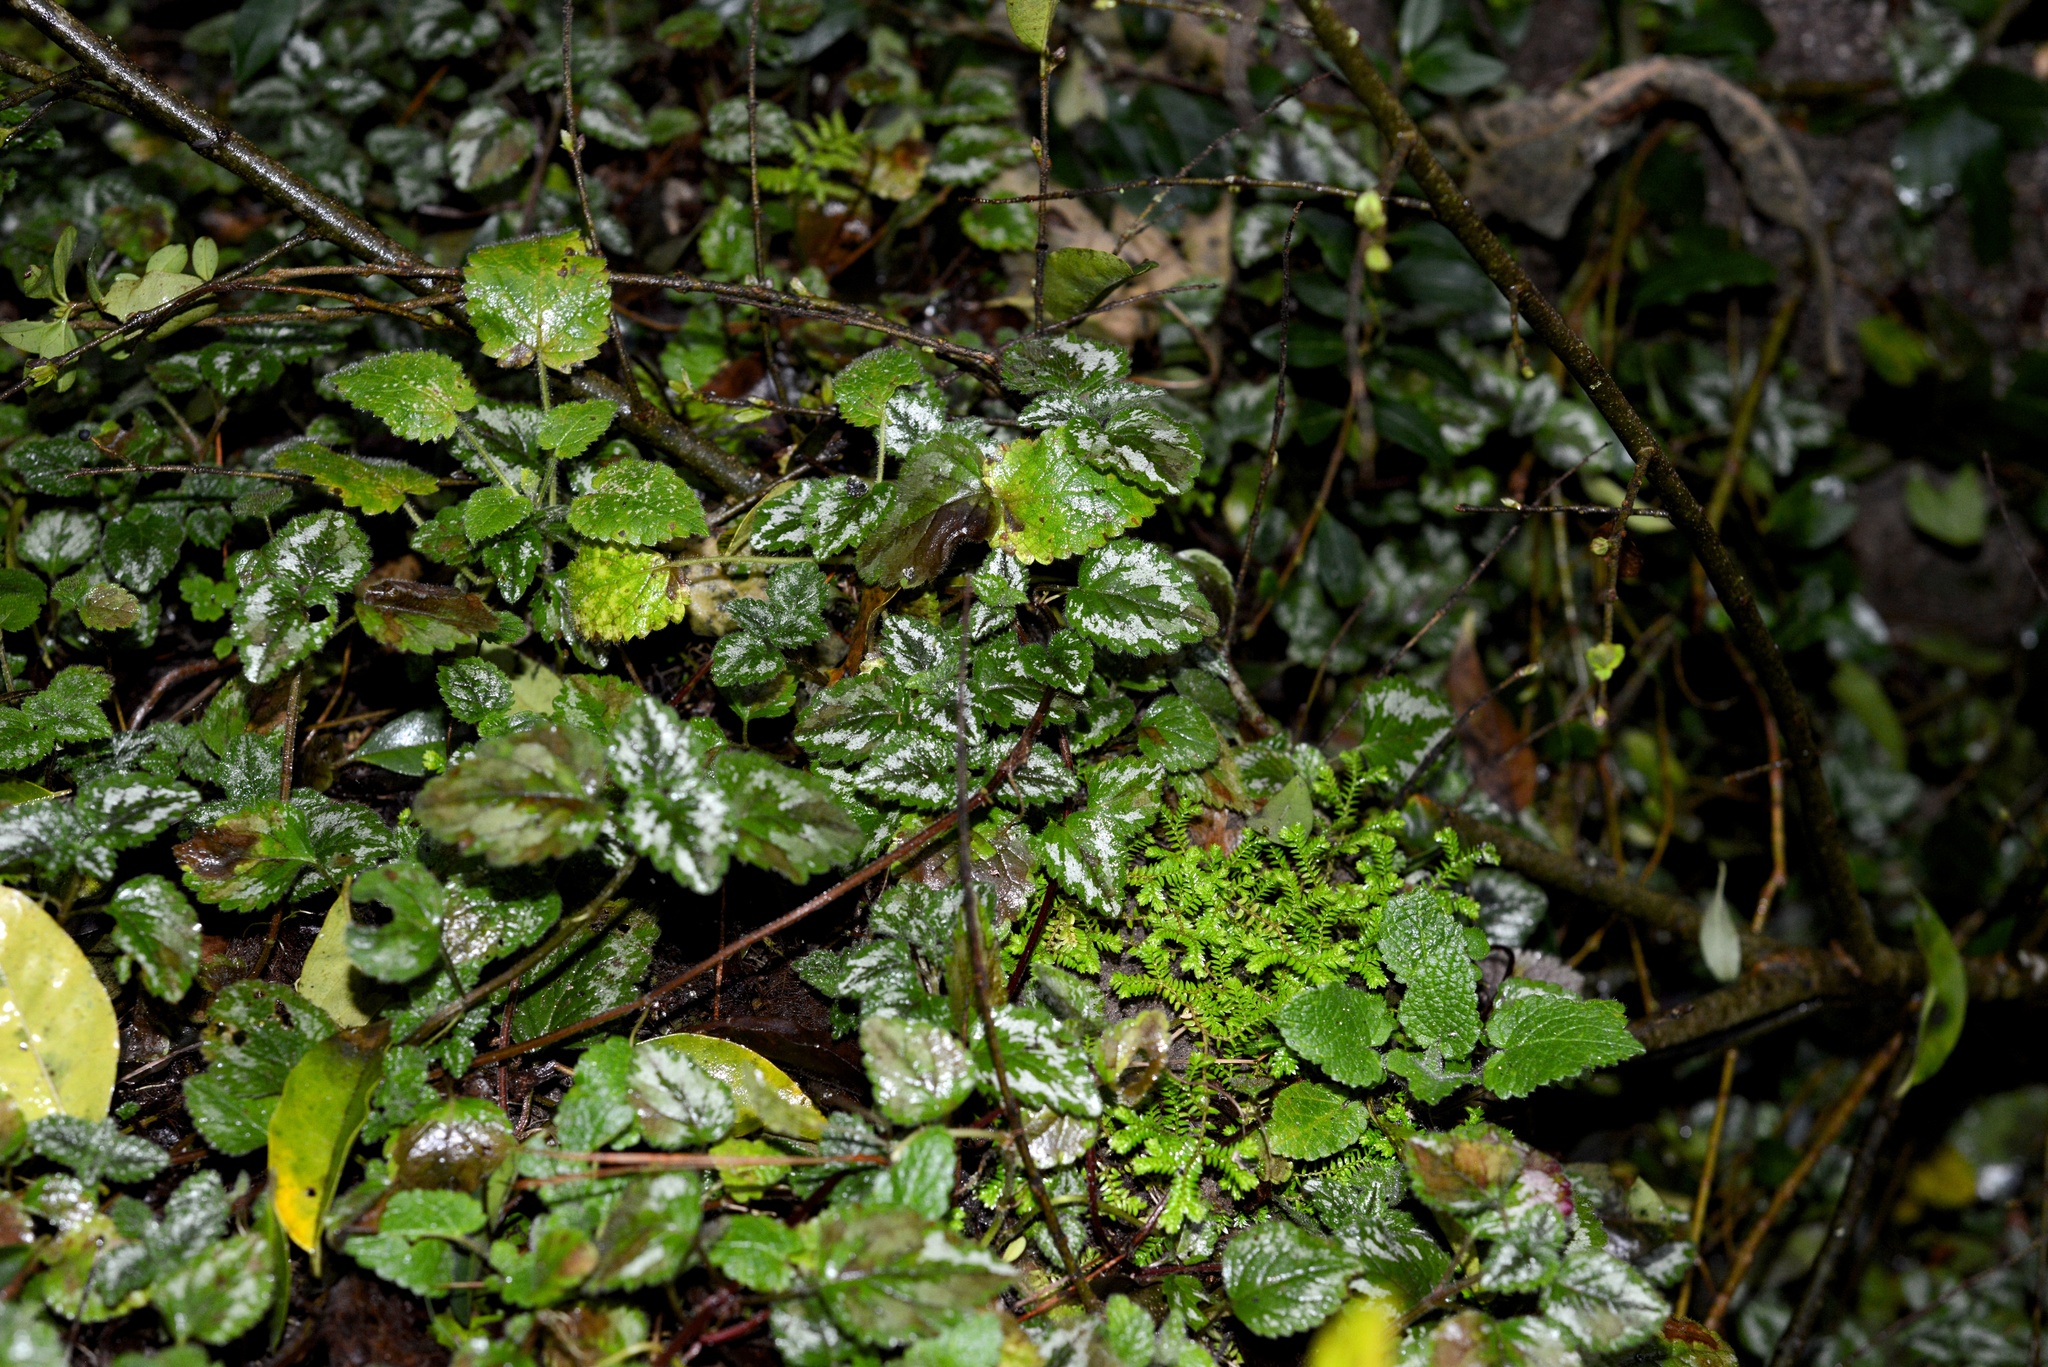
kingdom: Plantae
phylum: Tracheophyta
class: Lycopodiopsida
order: Selaginellales
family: Selaginellaceae
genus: Selaginella
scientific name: Selaginella kraussiana
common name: Krauss' spikemoss
